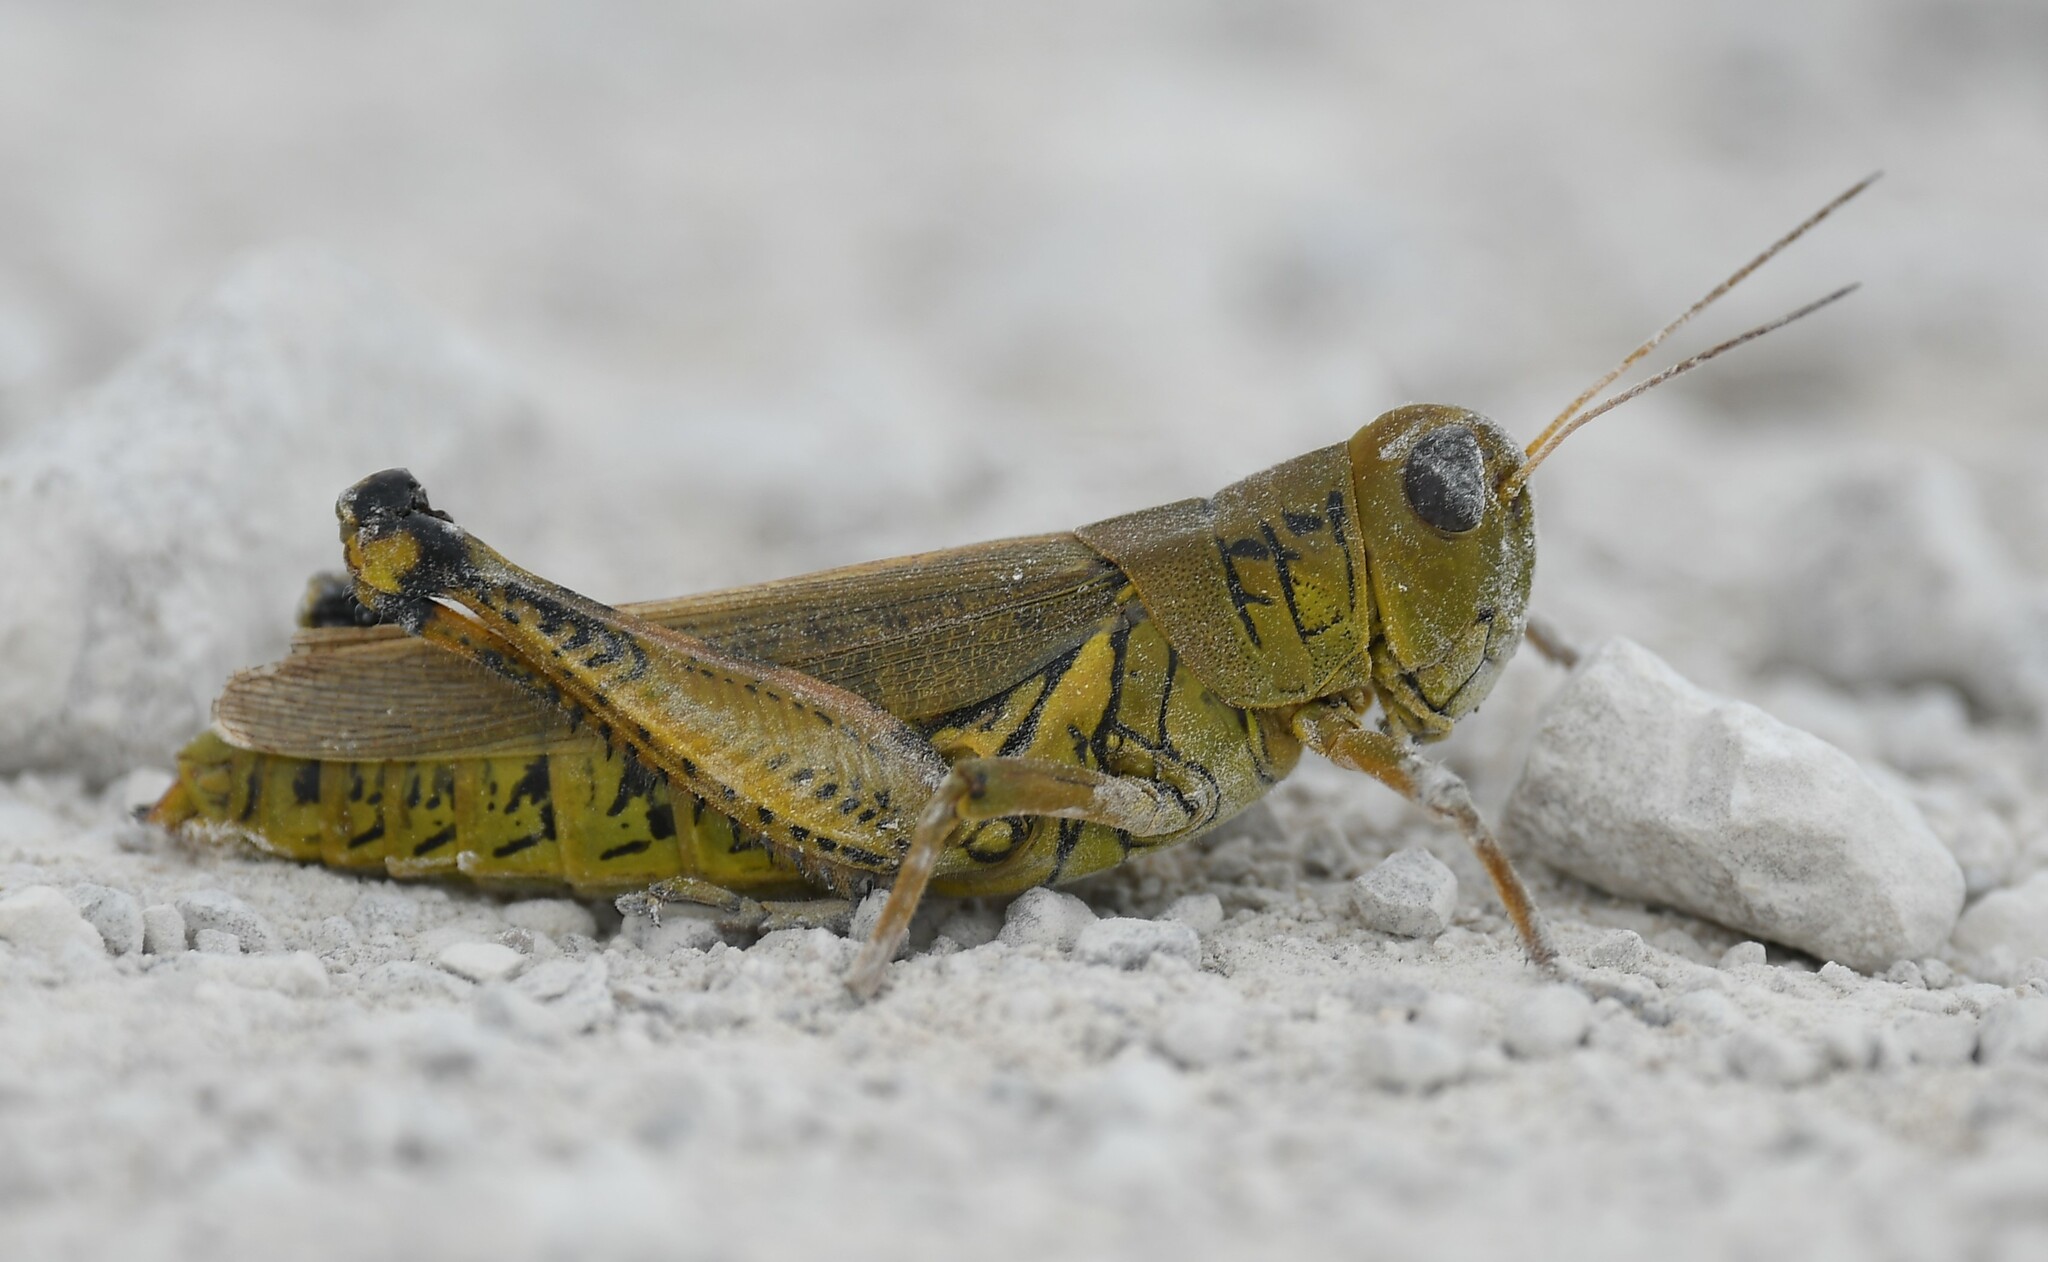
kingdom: Animalia
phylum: Arthropoda
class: Insecta
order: Orthoptera
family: Acrididae
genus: Melanoplus
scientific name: Melanoplus differentialis
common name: Differential grasshopper
